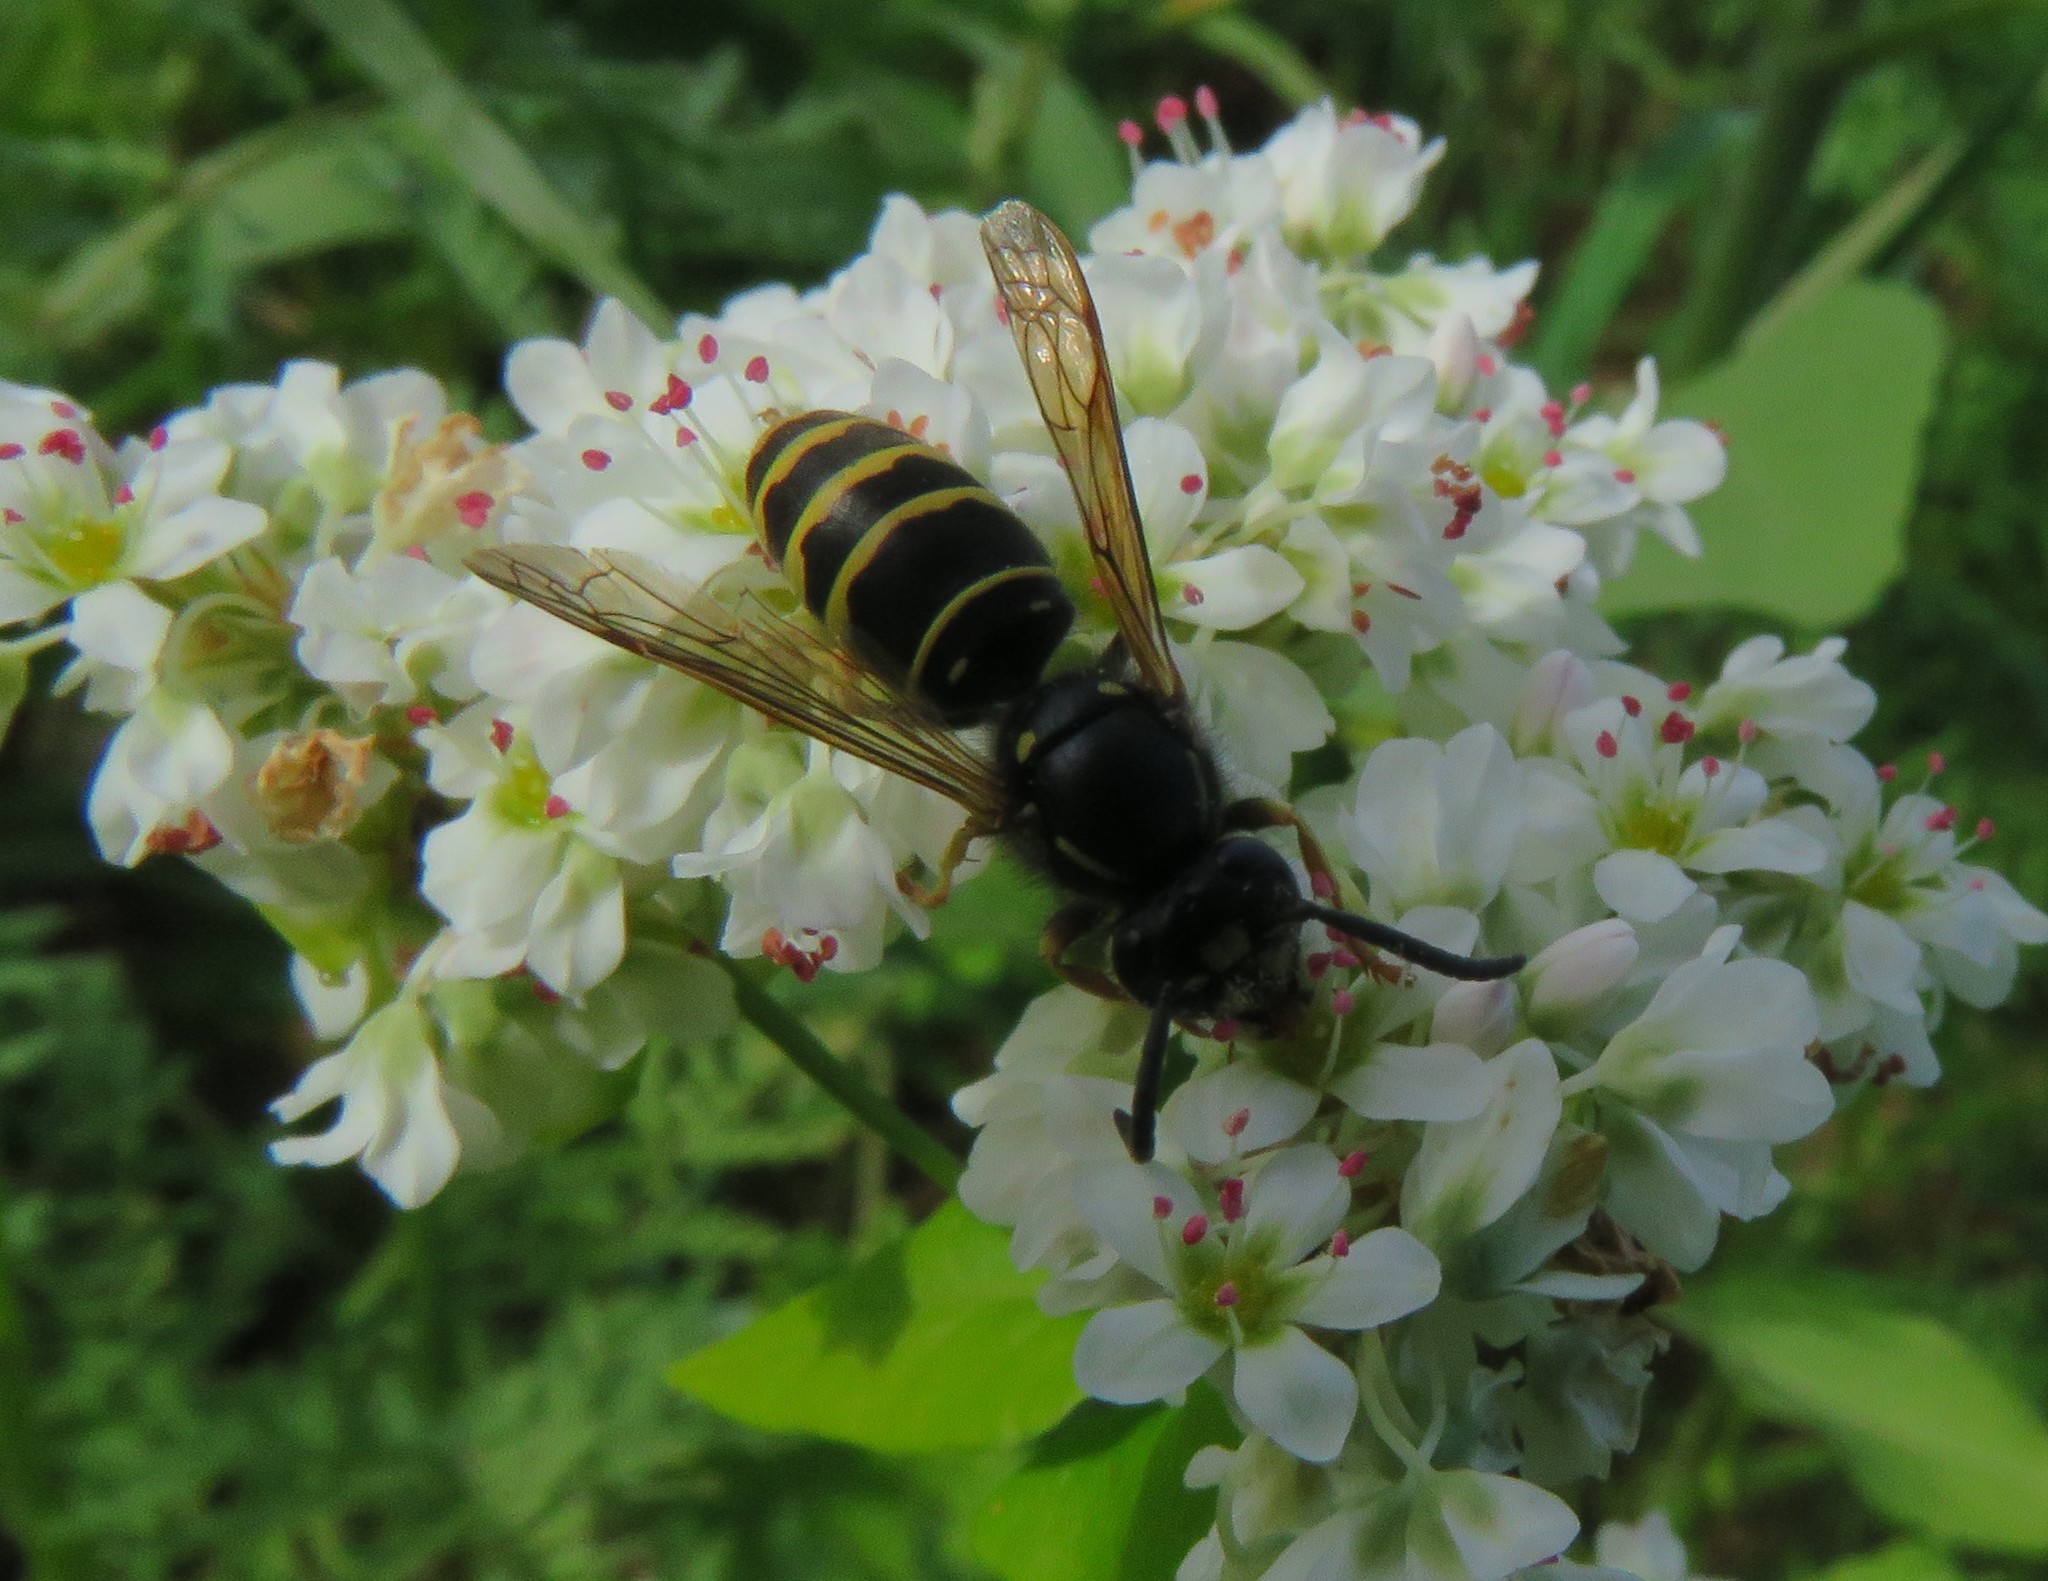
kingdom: Animalia
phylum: Arthropoda
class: Insecta
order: Hymenoptera
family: Vespidae
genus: Vespula
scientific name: Vespula acadica
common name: Forest yellowjacket
